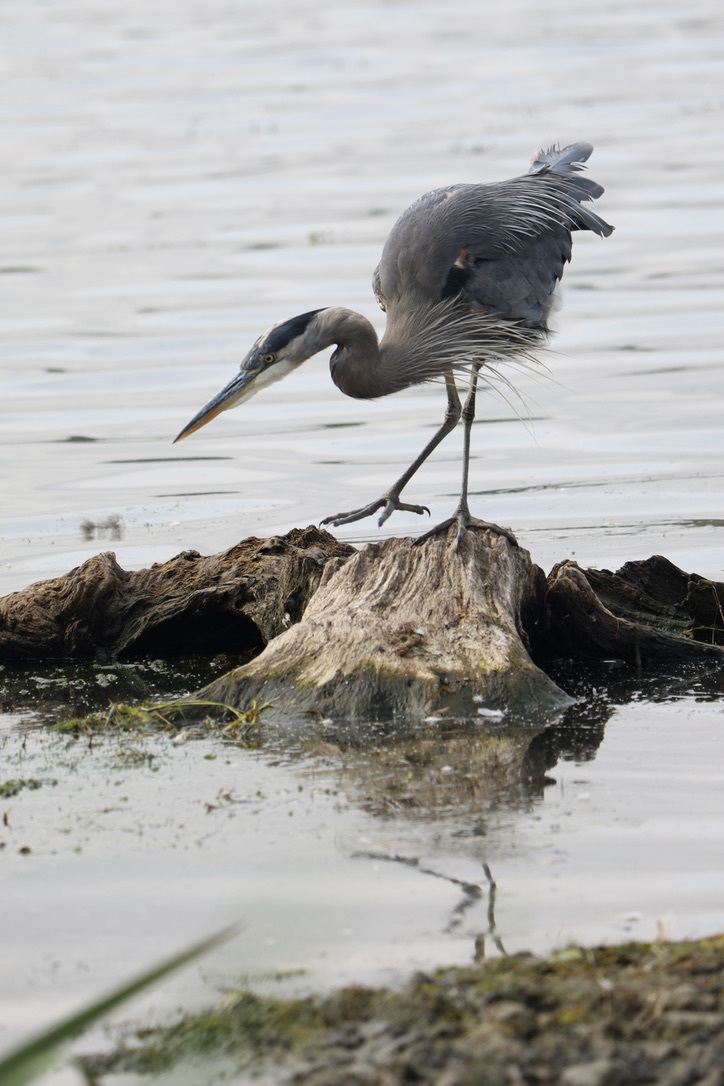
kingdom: Animalia
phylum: Chordata
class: Aves
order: Pelecaniformes
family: Ardeidae
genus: Ardea
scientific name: Ardea herodias
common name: Great blue heron
